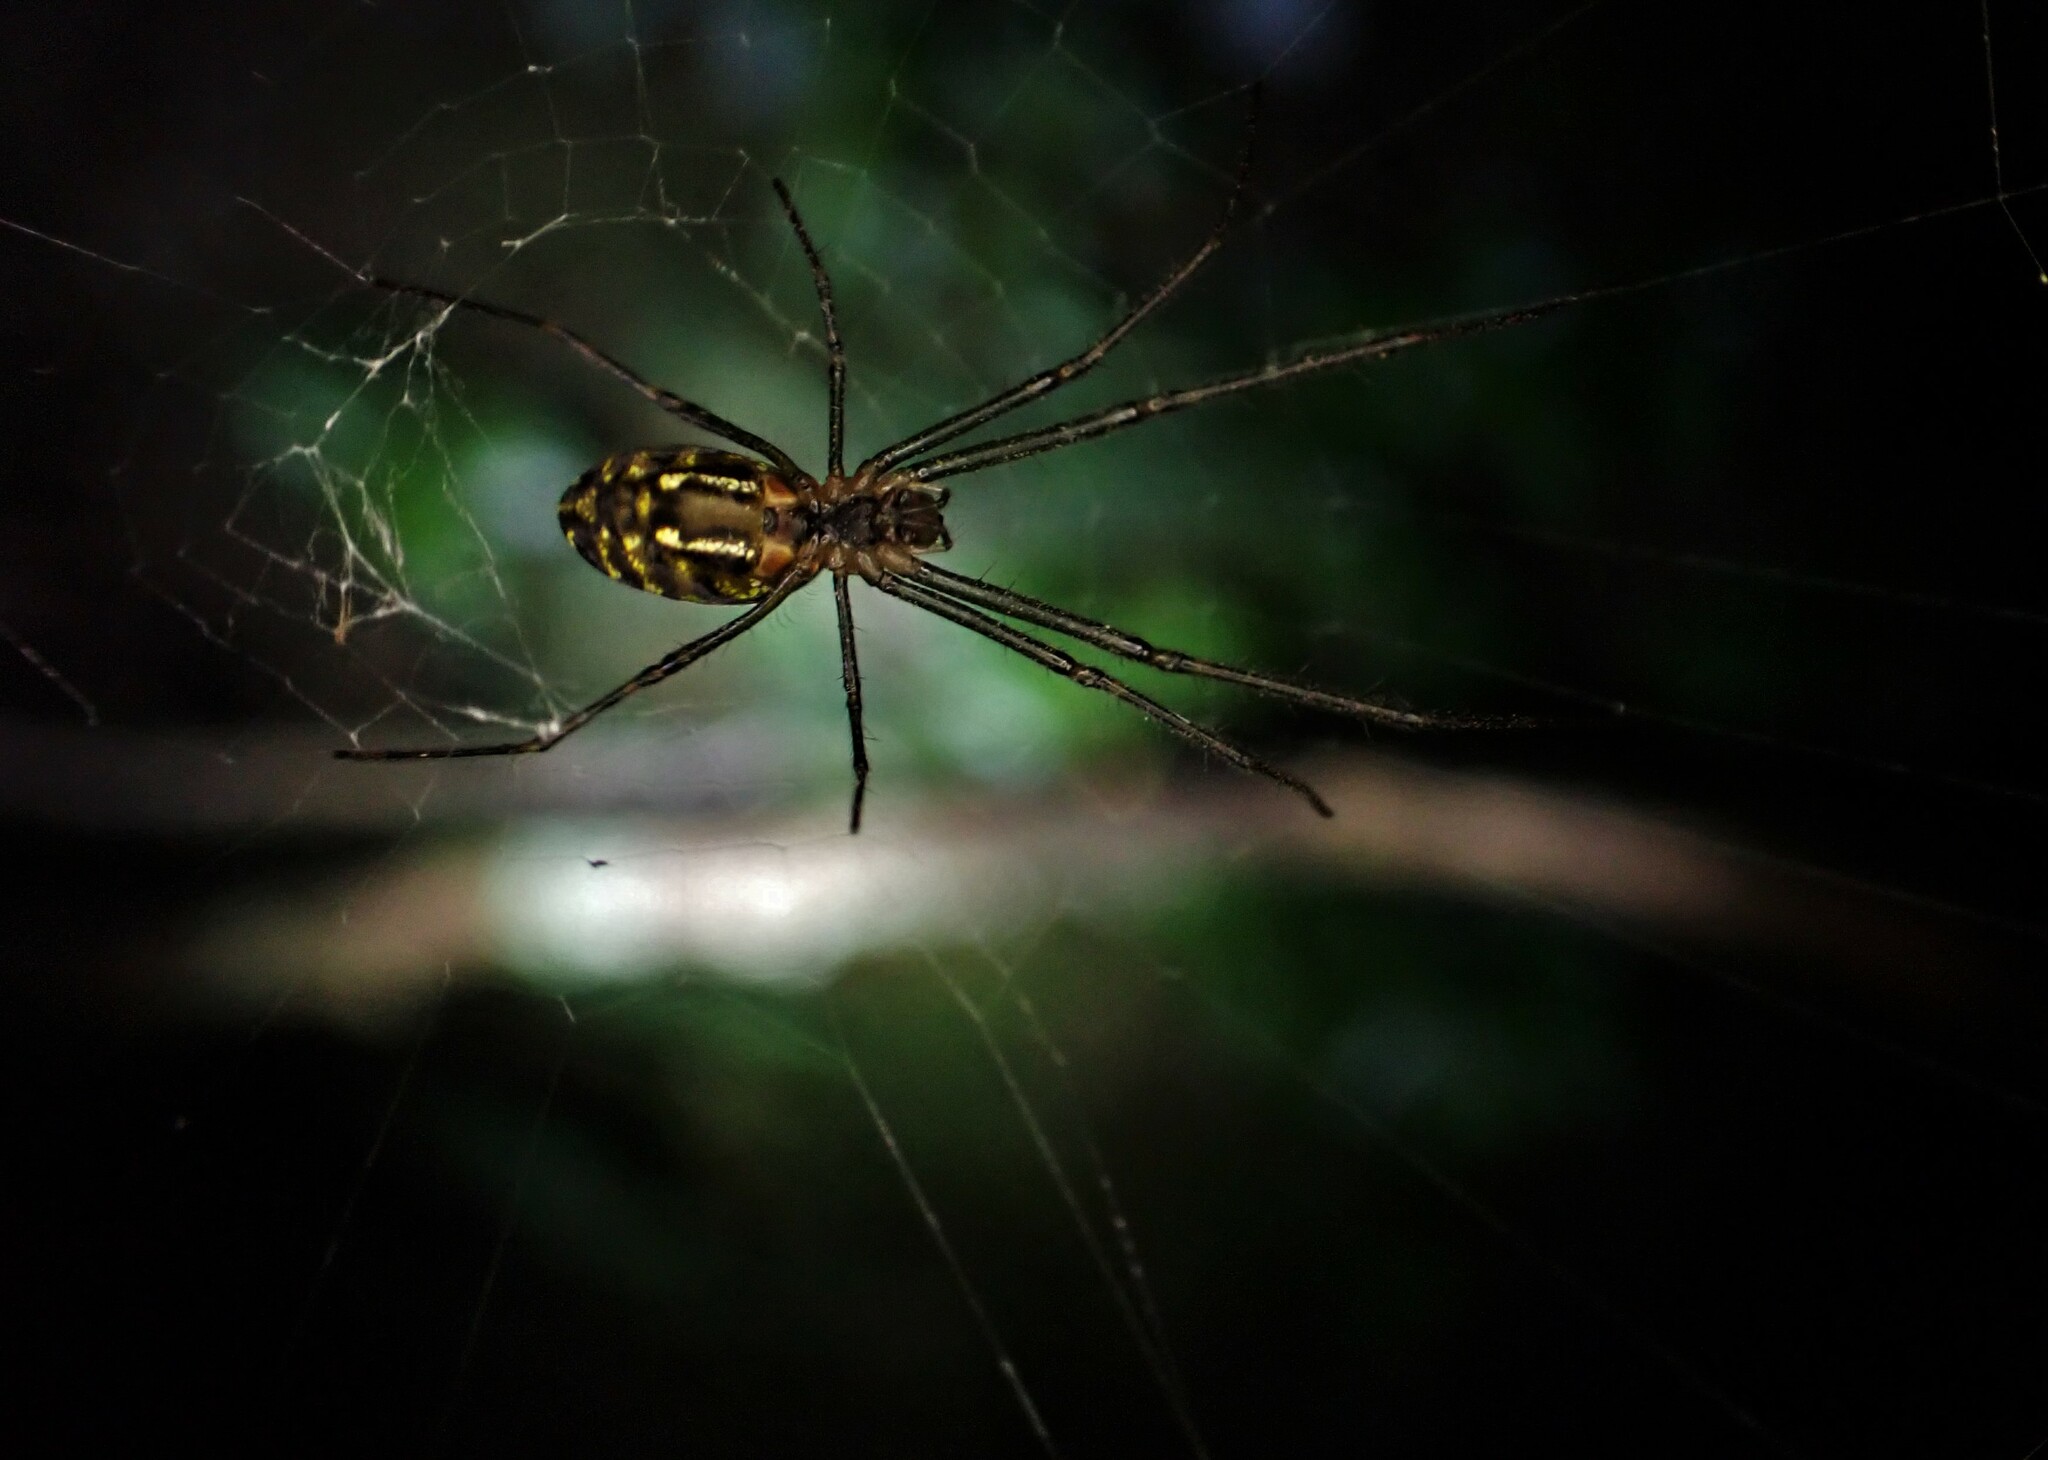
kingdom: Animalia
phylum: Arthropoda
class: Arachnida
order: Araneae
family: Tetragnathidae
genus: Leucauge
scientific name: Leucauge dromedaria
